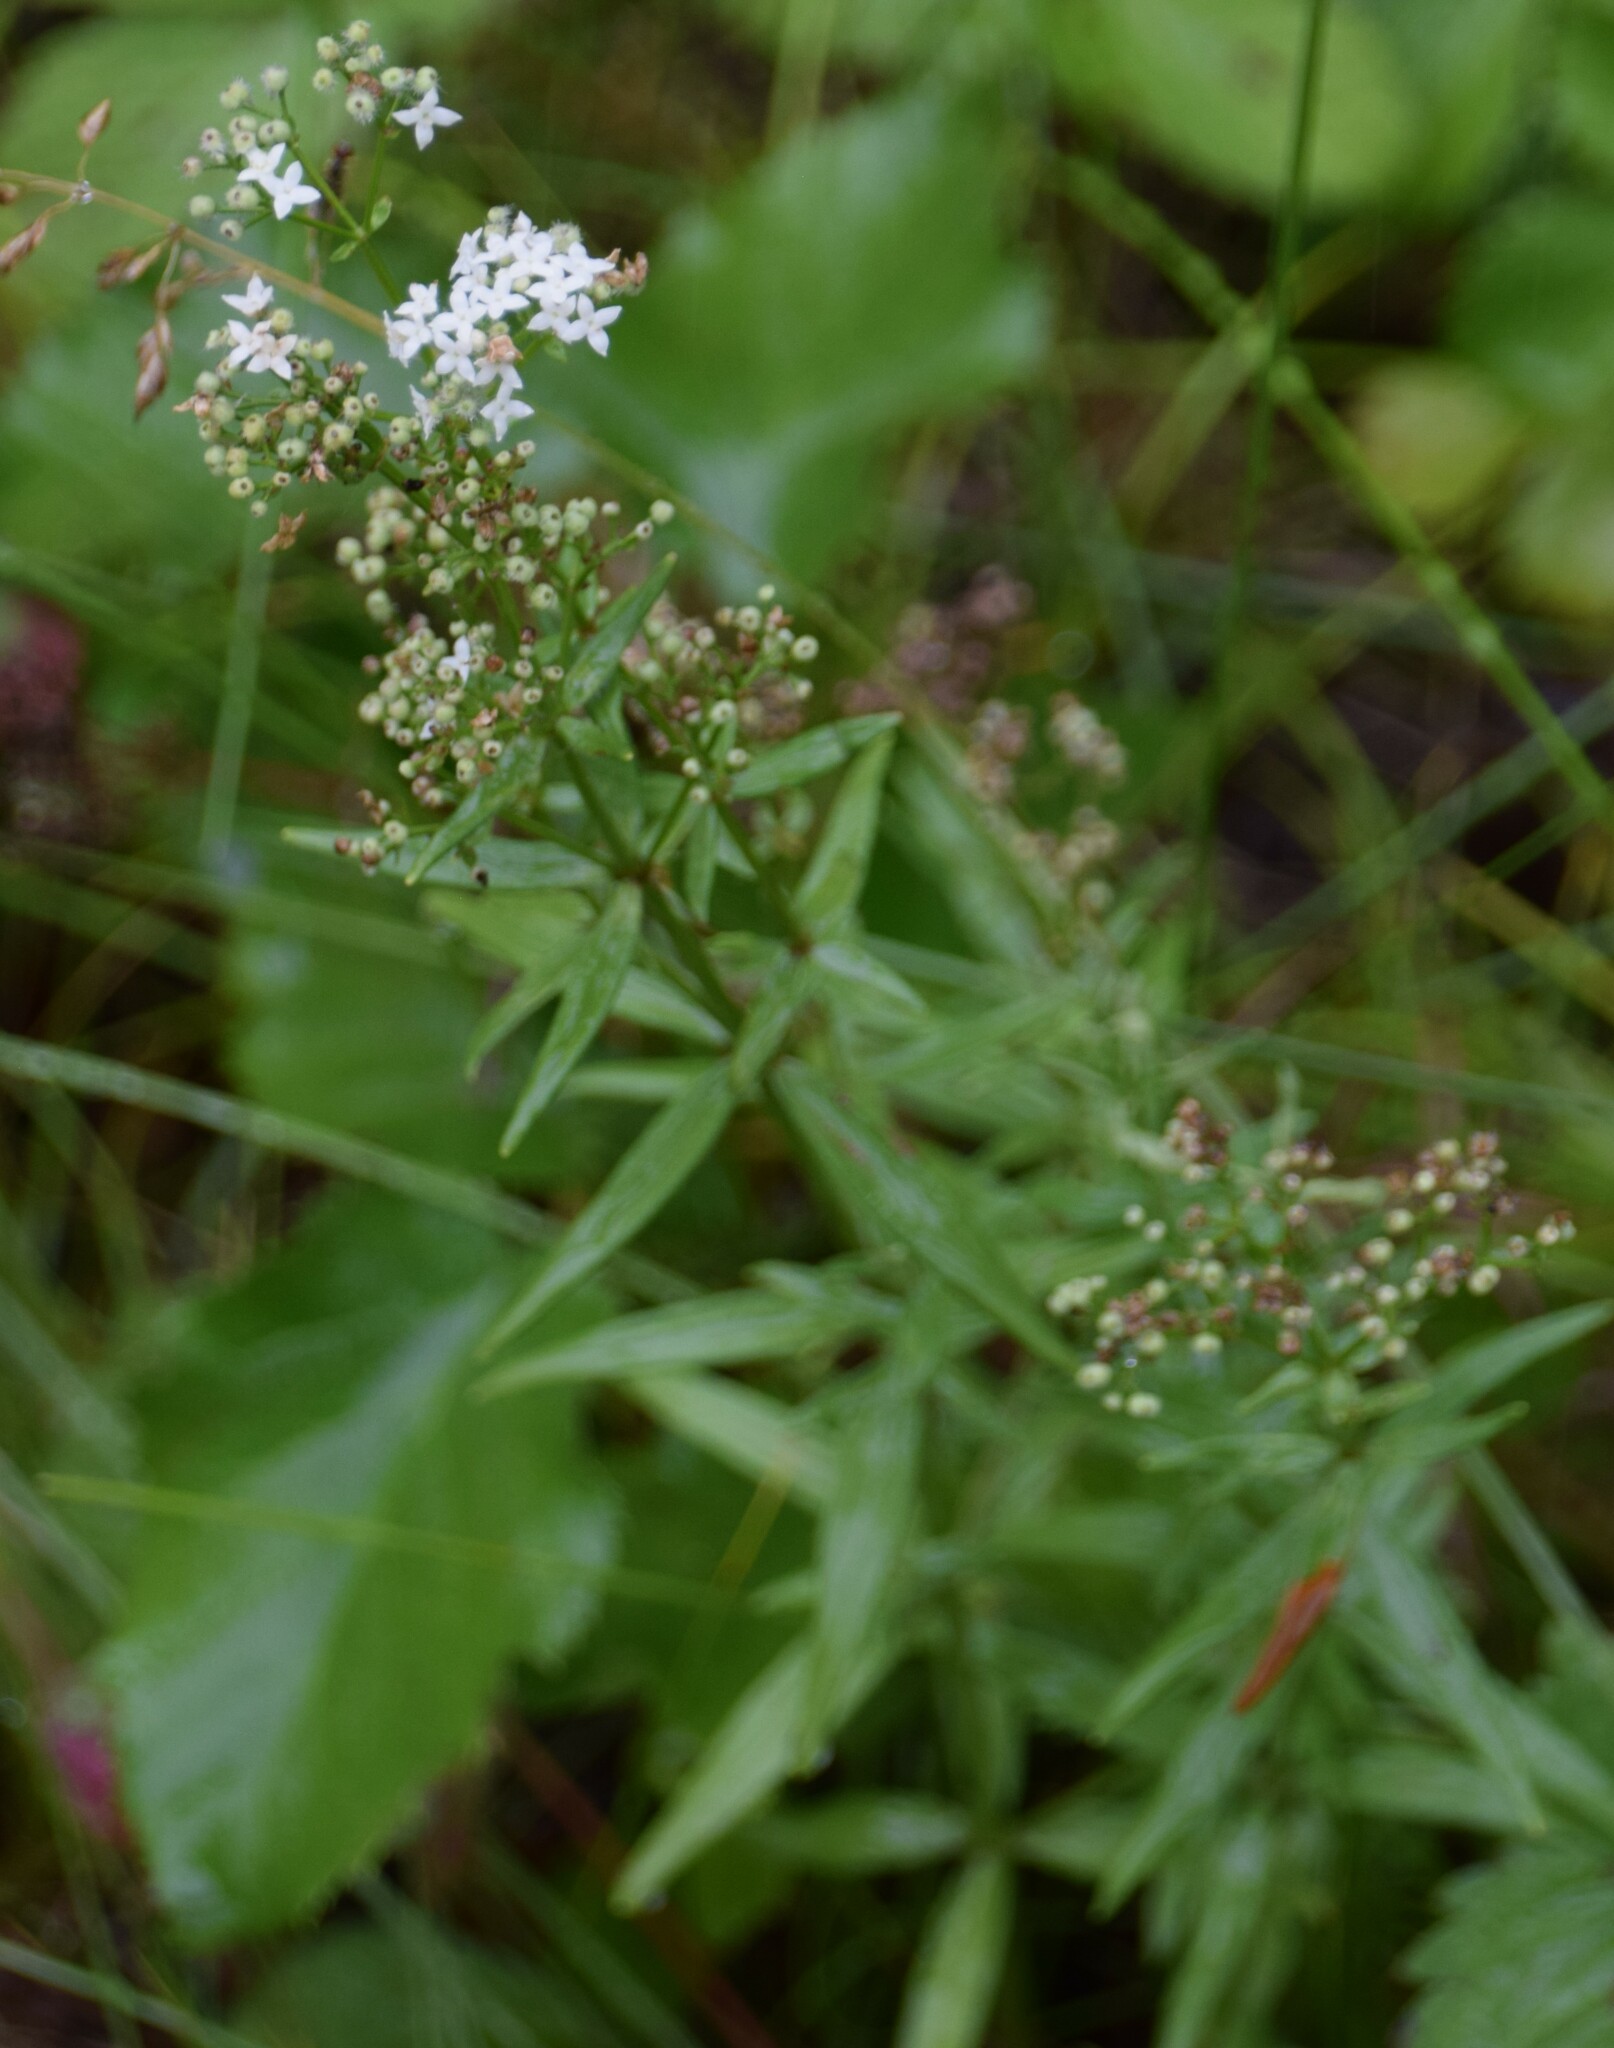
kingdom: Plantae
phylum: Tracheophyta
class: Magnoliopsida
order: Gentianales
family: Rubiaceae
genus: Galium
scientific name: Galium boreale
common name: Northern bedstraw
